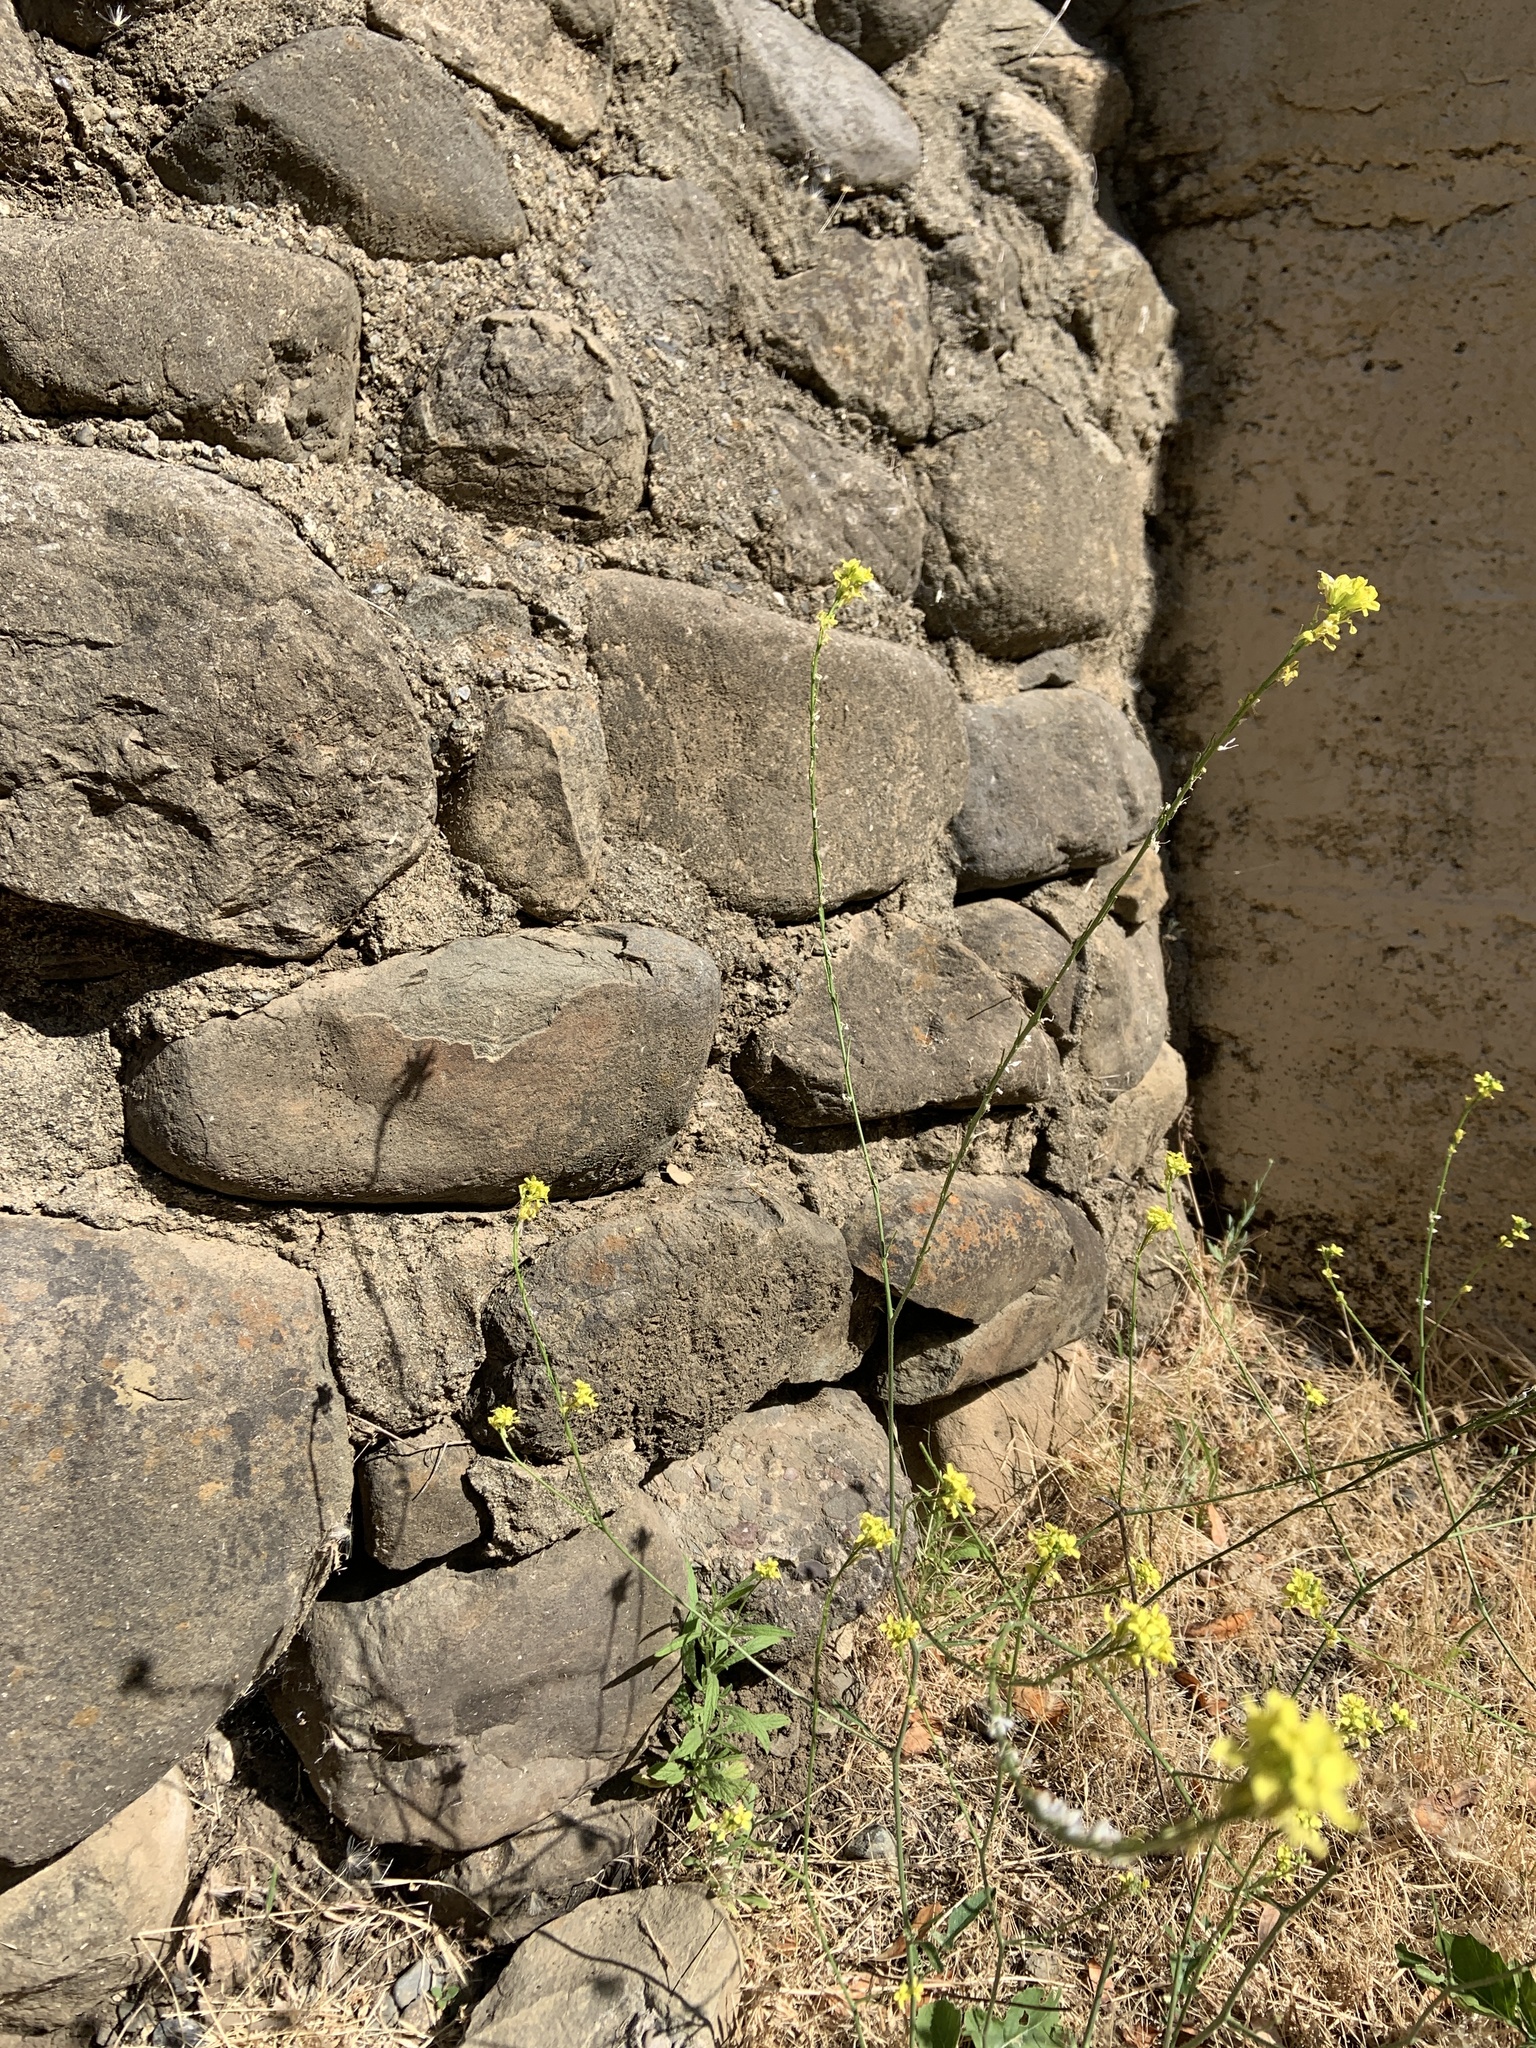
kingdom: Plantae
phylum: Tracheophyta
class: Magnoliopsida
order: Asterales
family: Asteraceae
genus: Dittrichia
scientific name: Dittrichia graveolens
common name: Stinking fleabane
